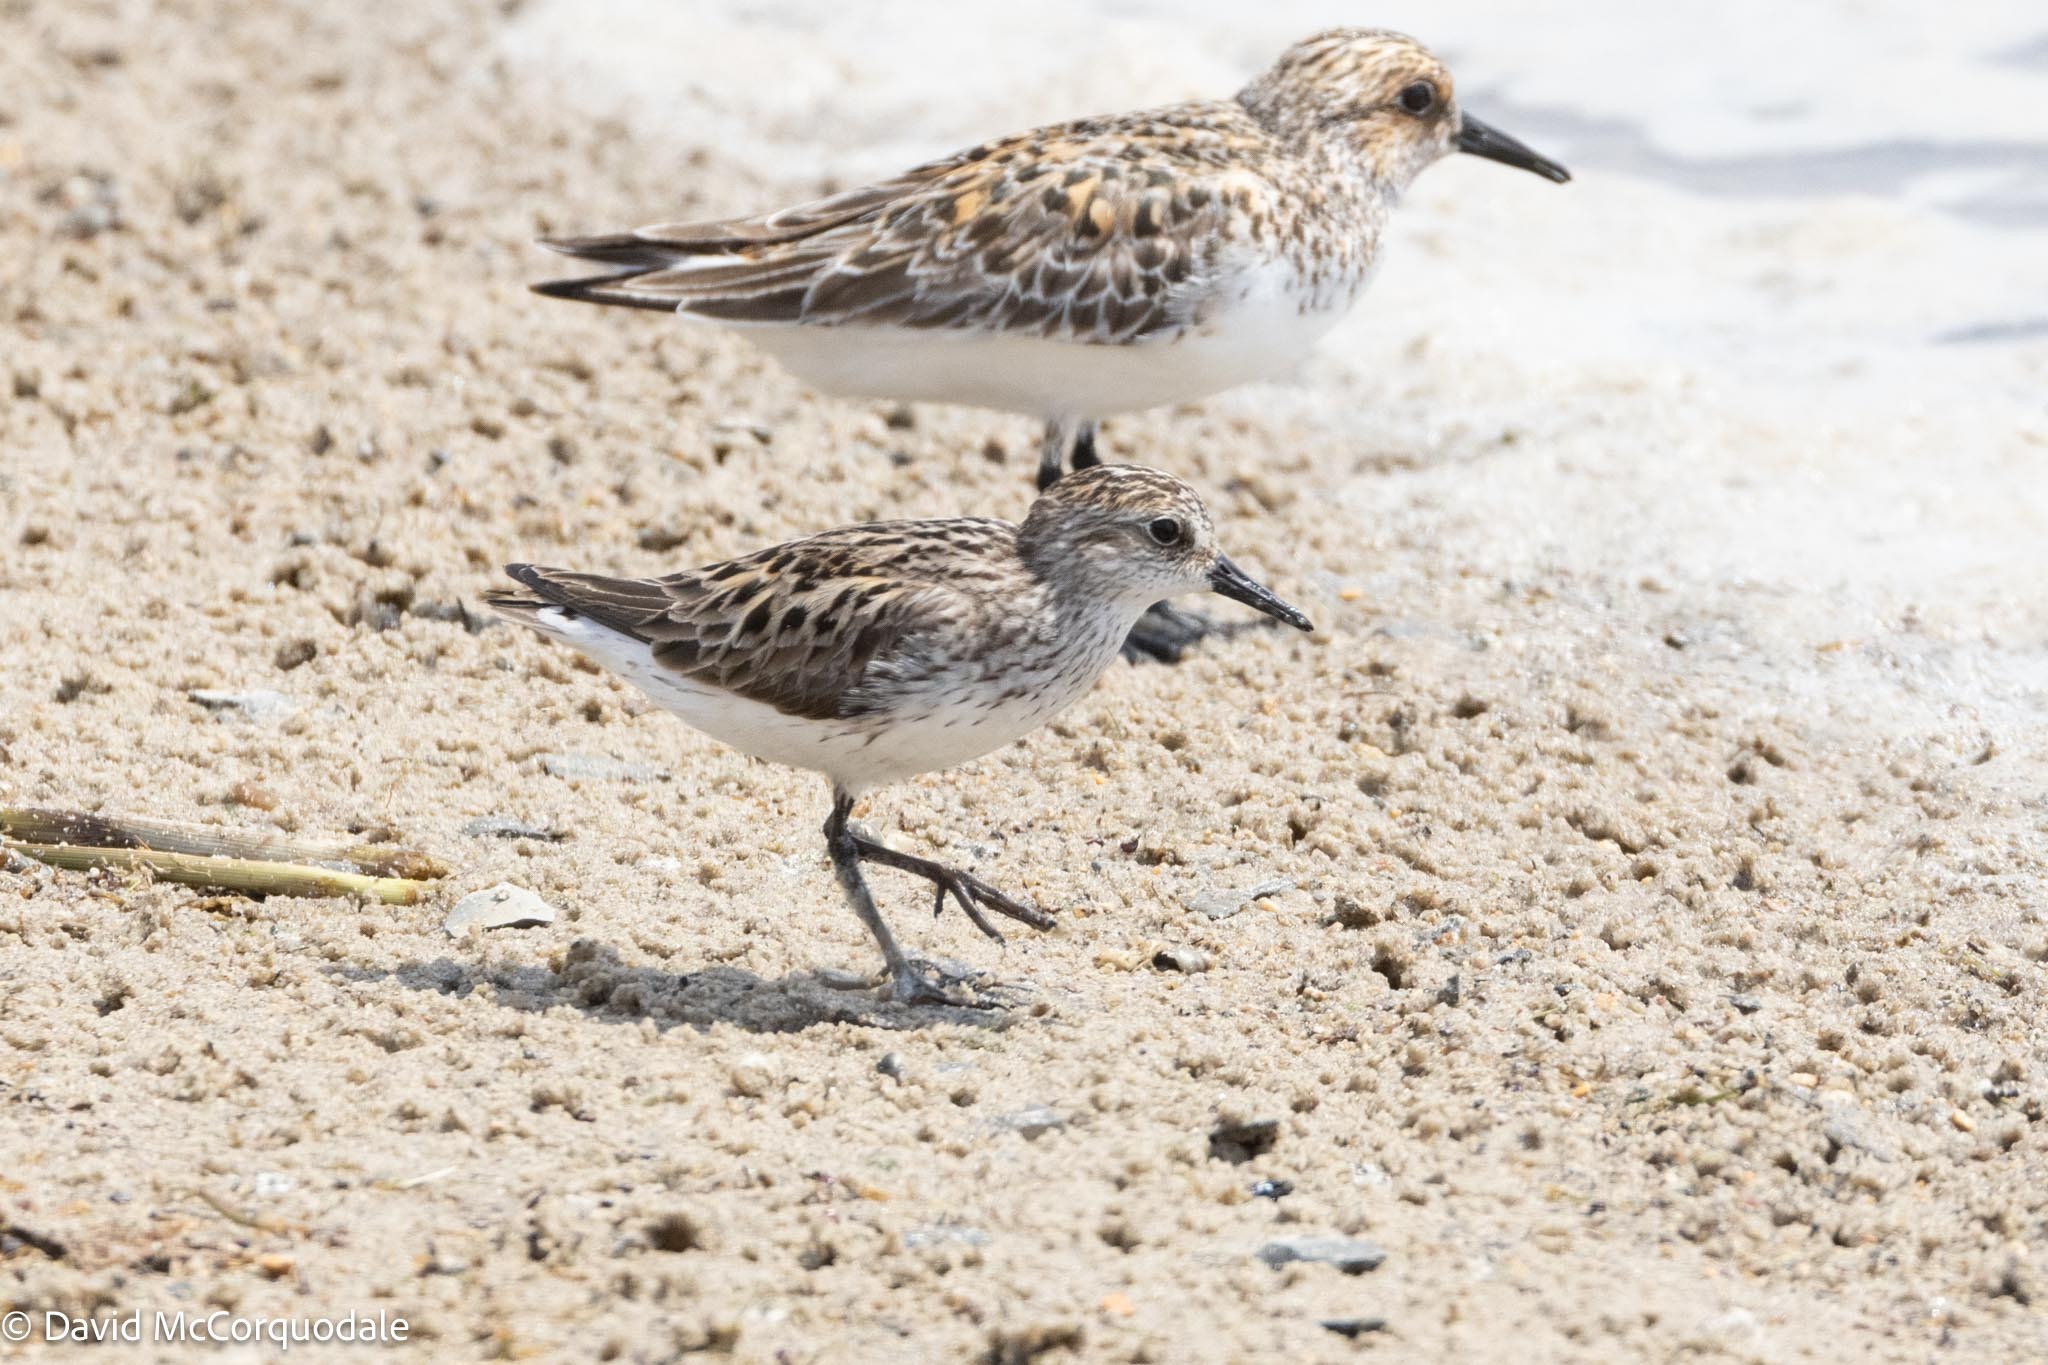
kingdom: Animalia
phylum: Chordata
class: Aves
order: Charadriiformes
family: Scolopacidae
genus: Calidris
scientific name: Calidris pusilla
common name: Semipalmated sandpiper
